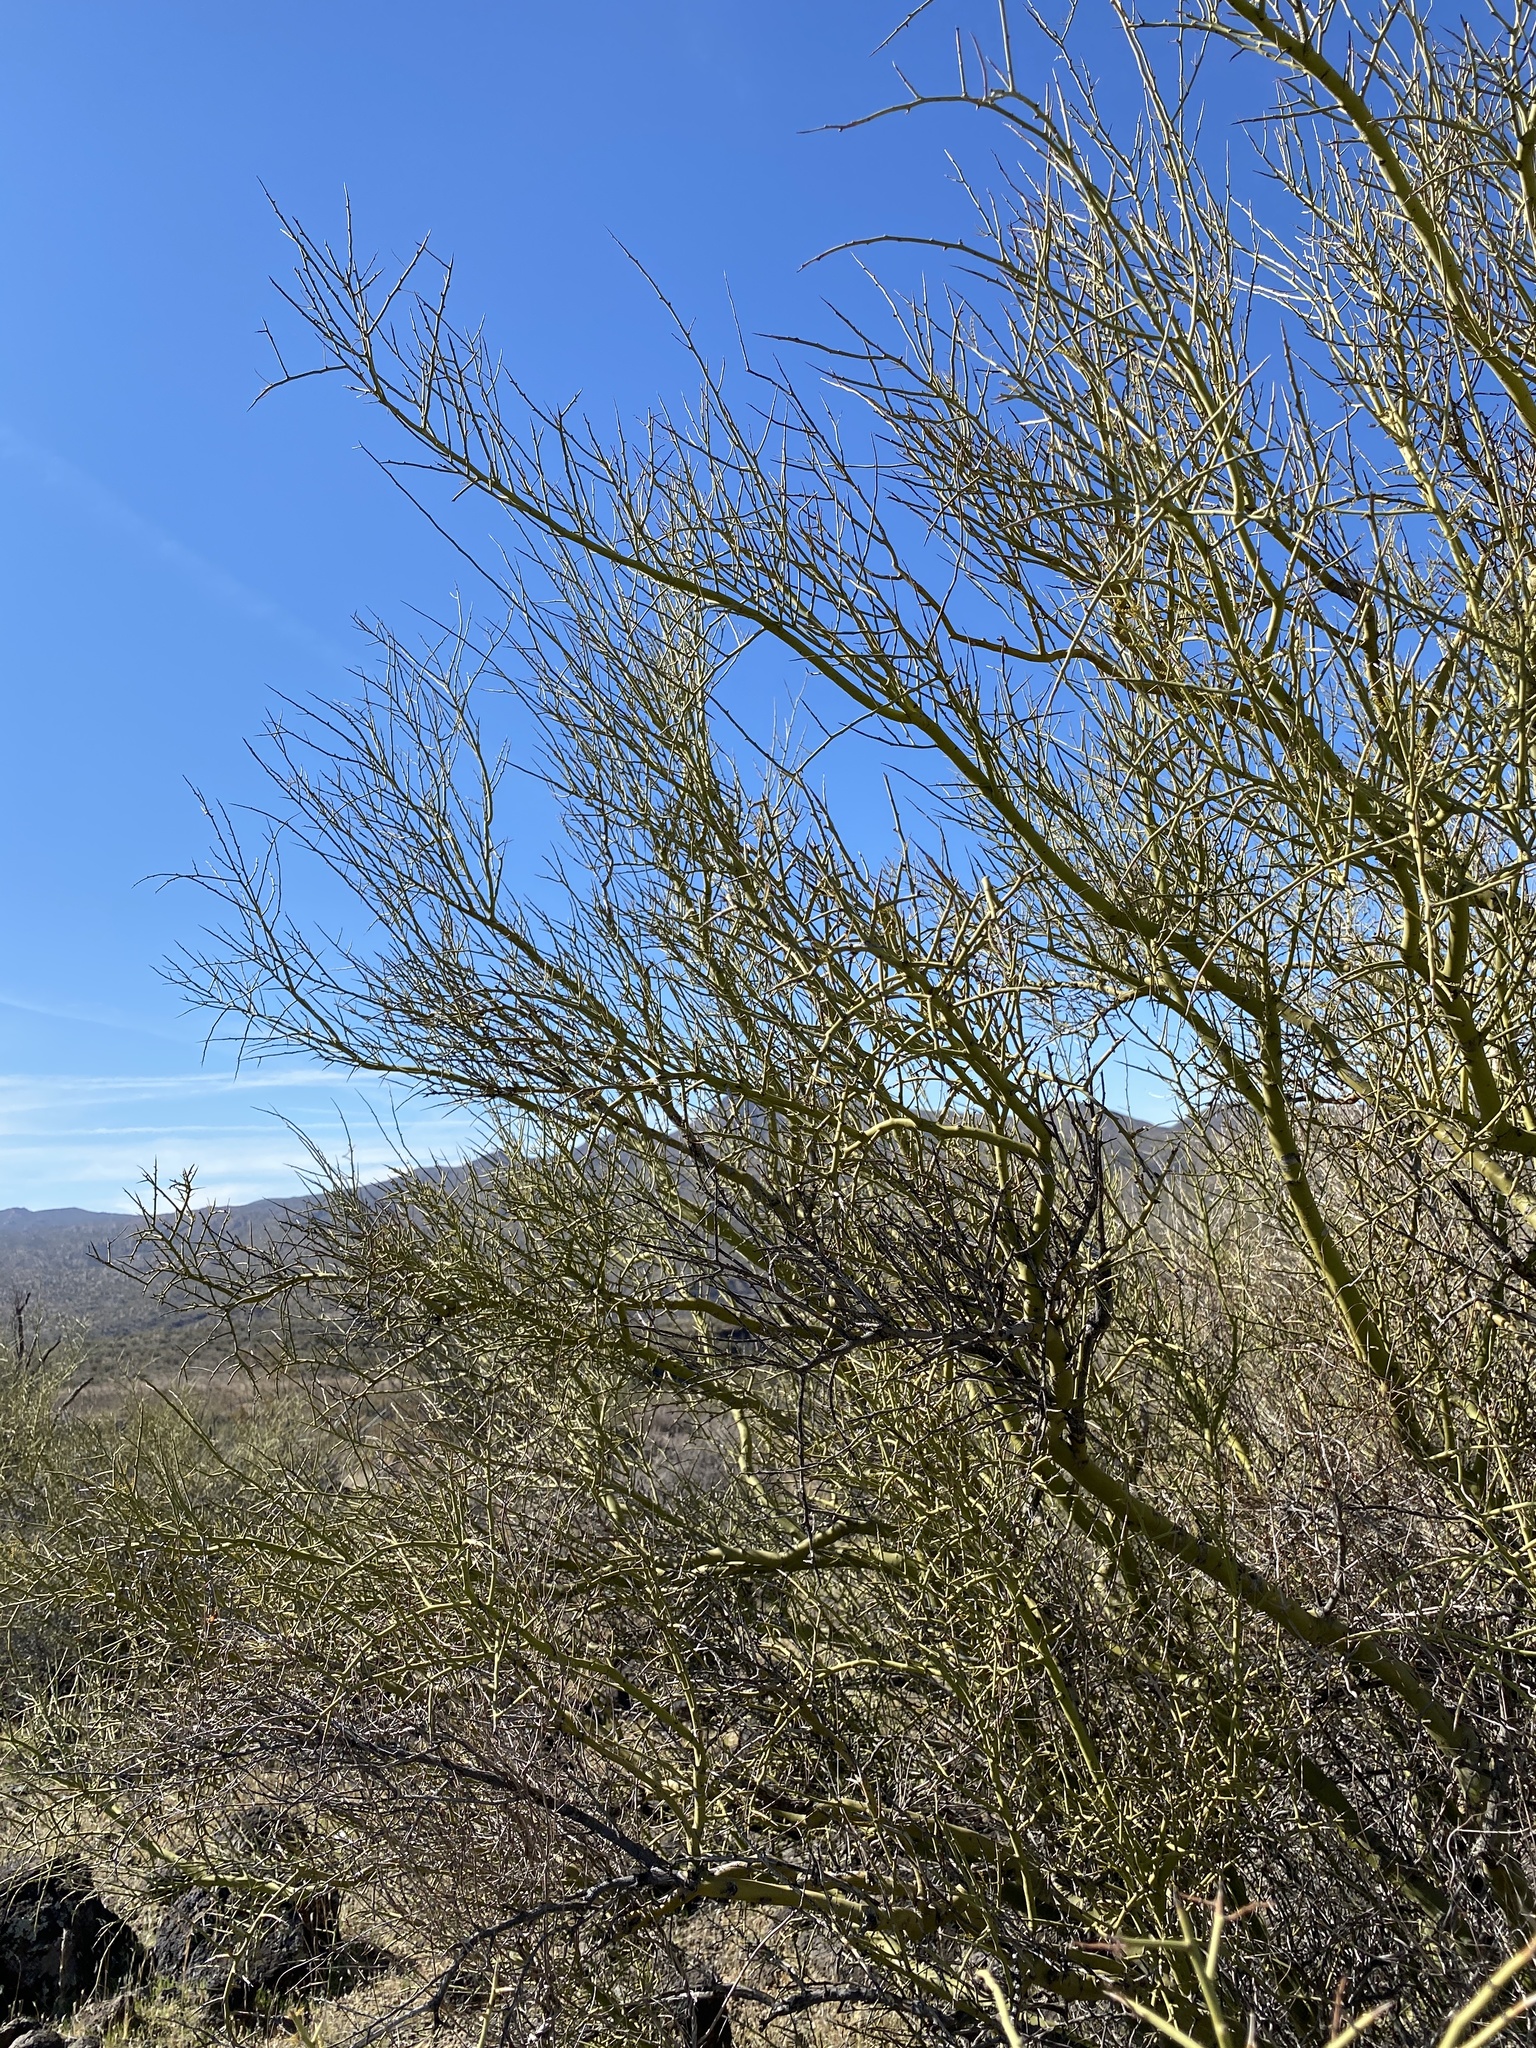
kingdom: Plantae
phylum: Tracheophyta
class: Magnoliopsida
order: Fabales
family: Fabaceae
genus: Parkinsonia
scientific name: Parkinsonia microphylla
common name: Yellow paloverde
